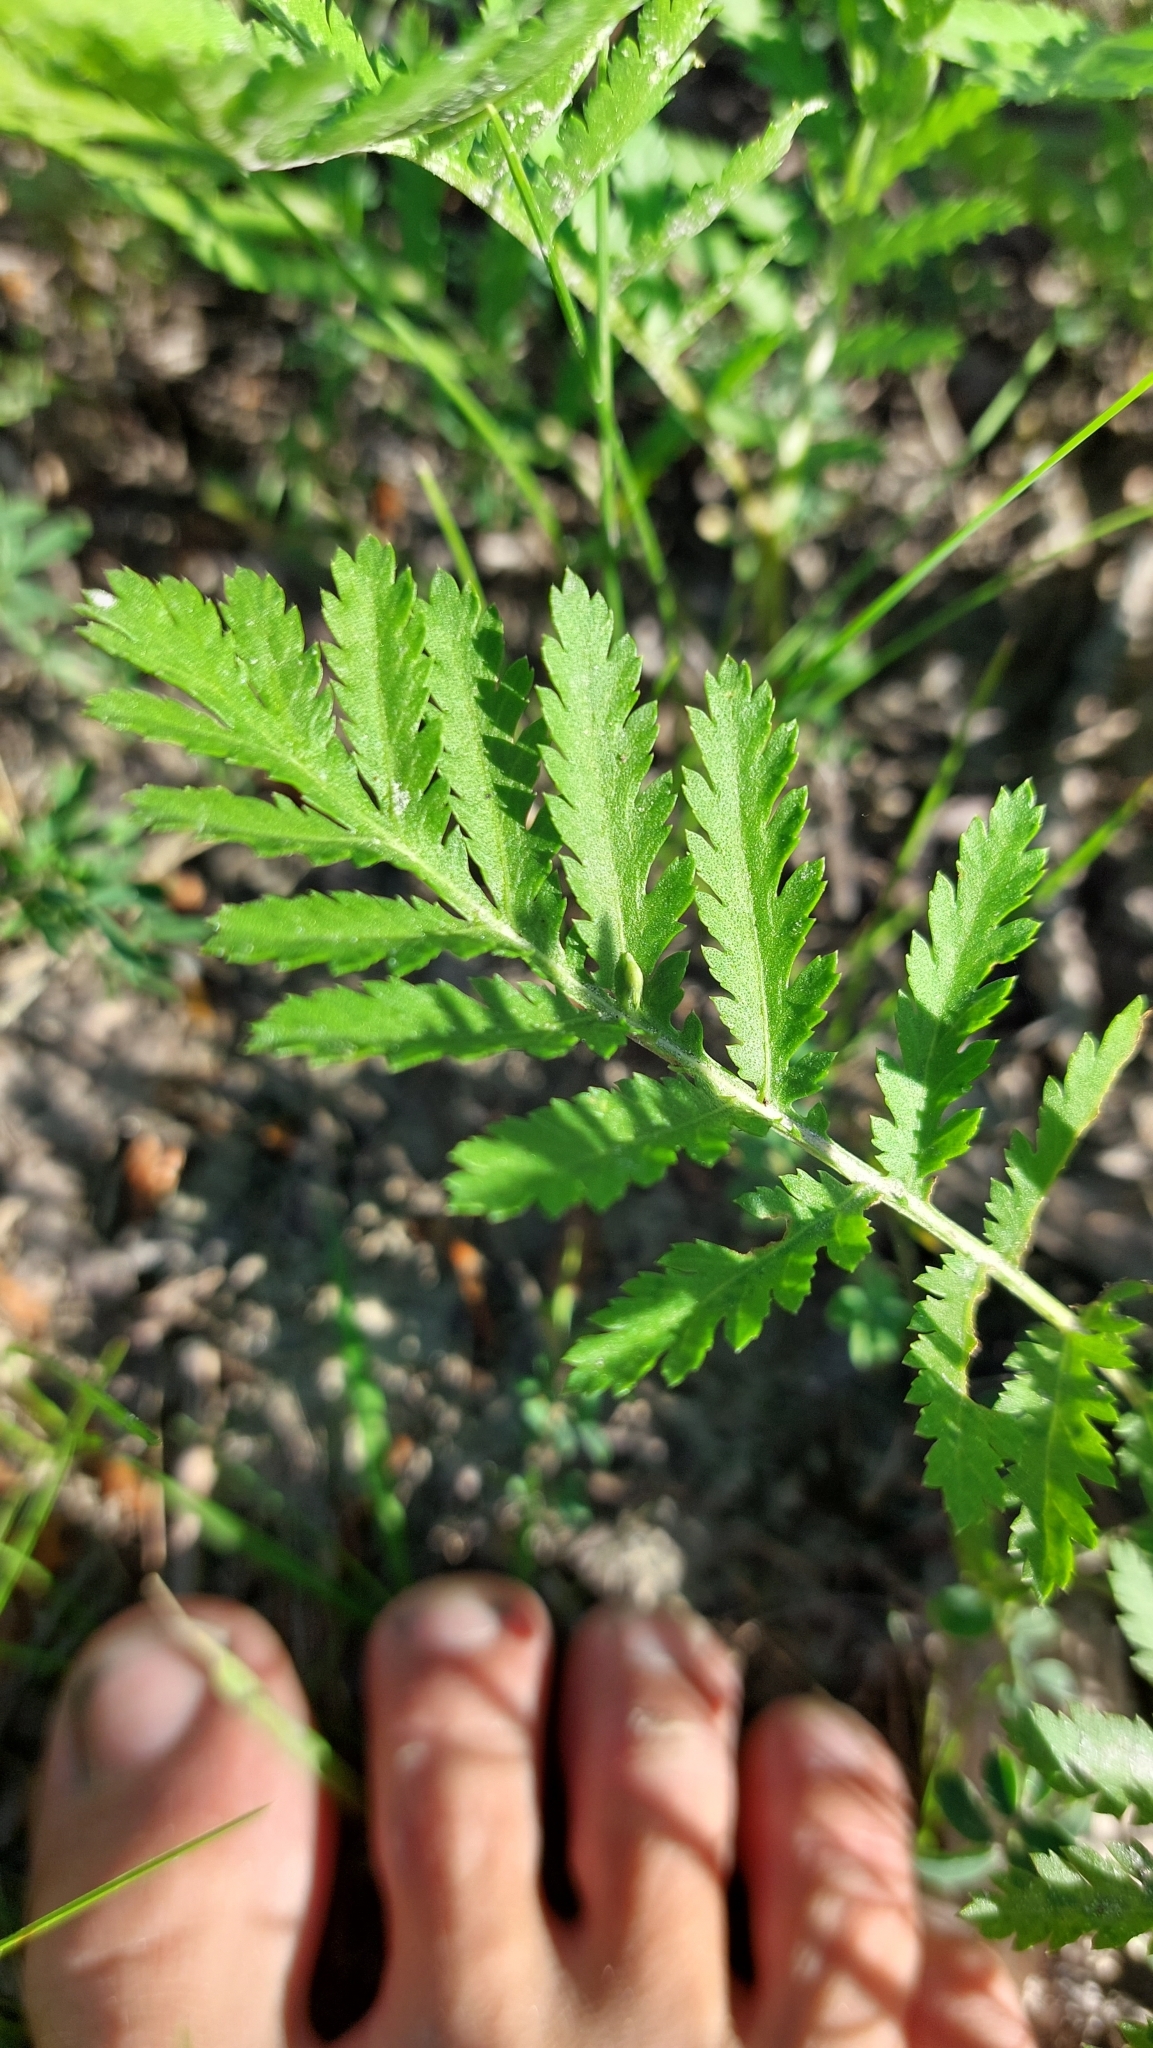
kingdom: Plantae
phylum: Tracheophyta
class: Magnoliopsida
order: Asterales
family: Asteraceae
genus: Tanacetum
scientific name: Tanacetum vulgare
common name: Common tansy
